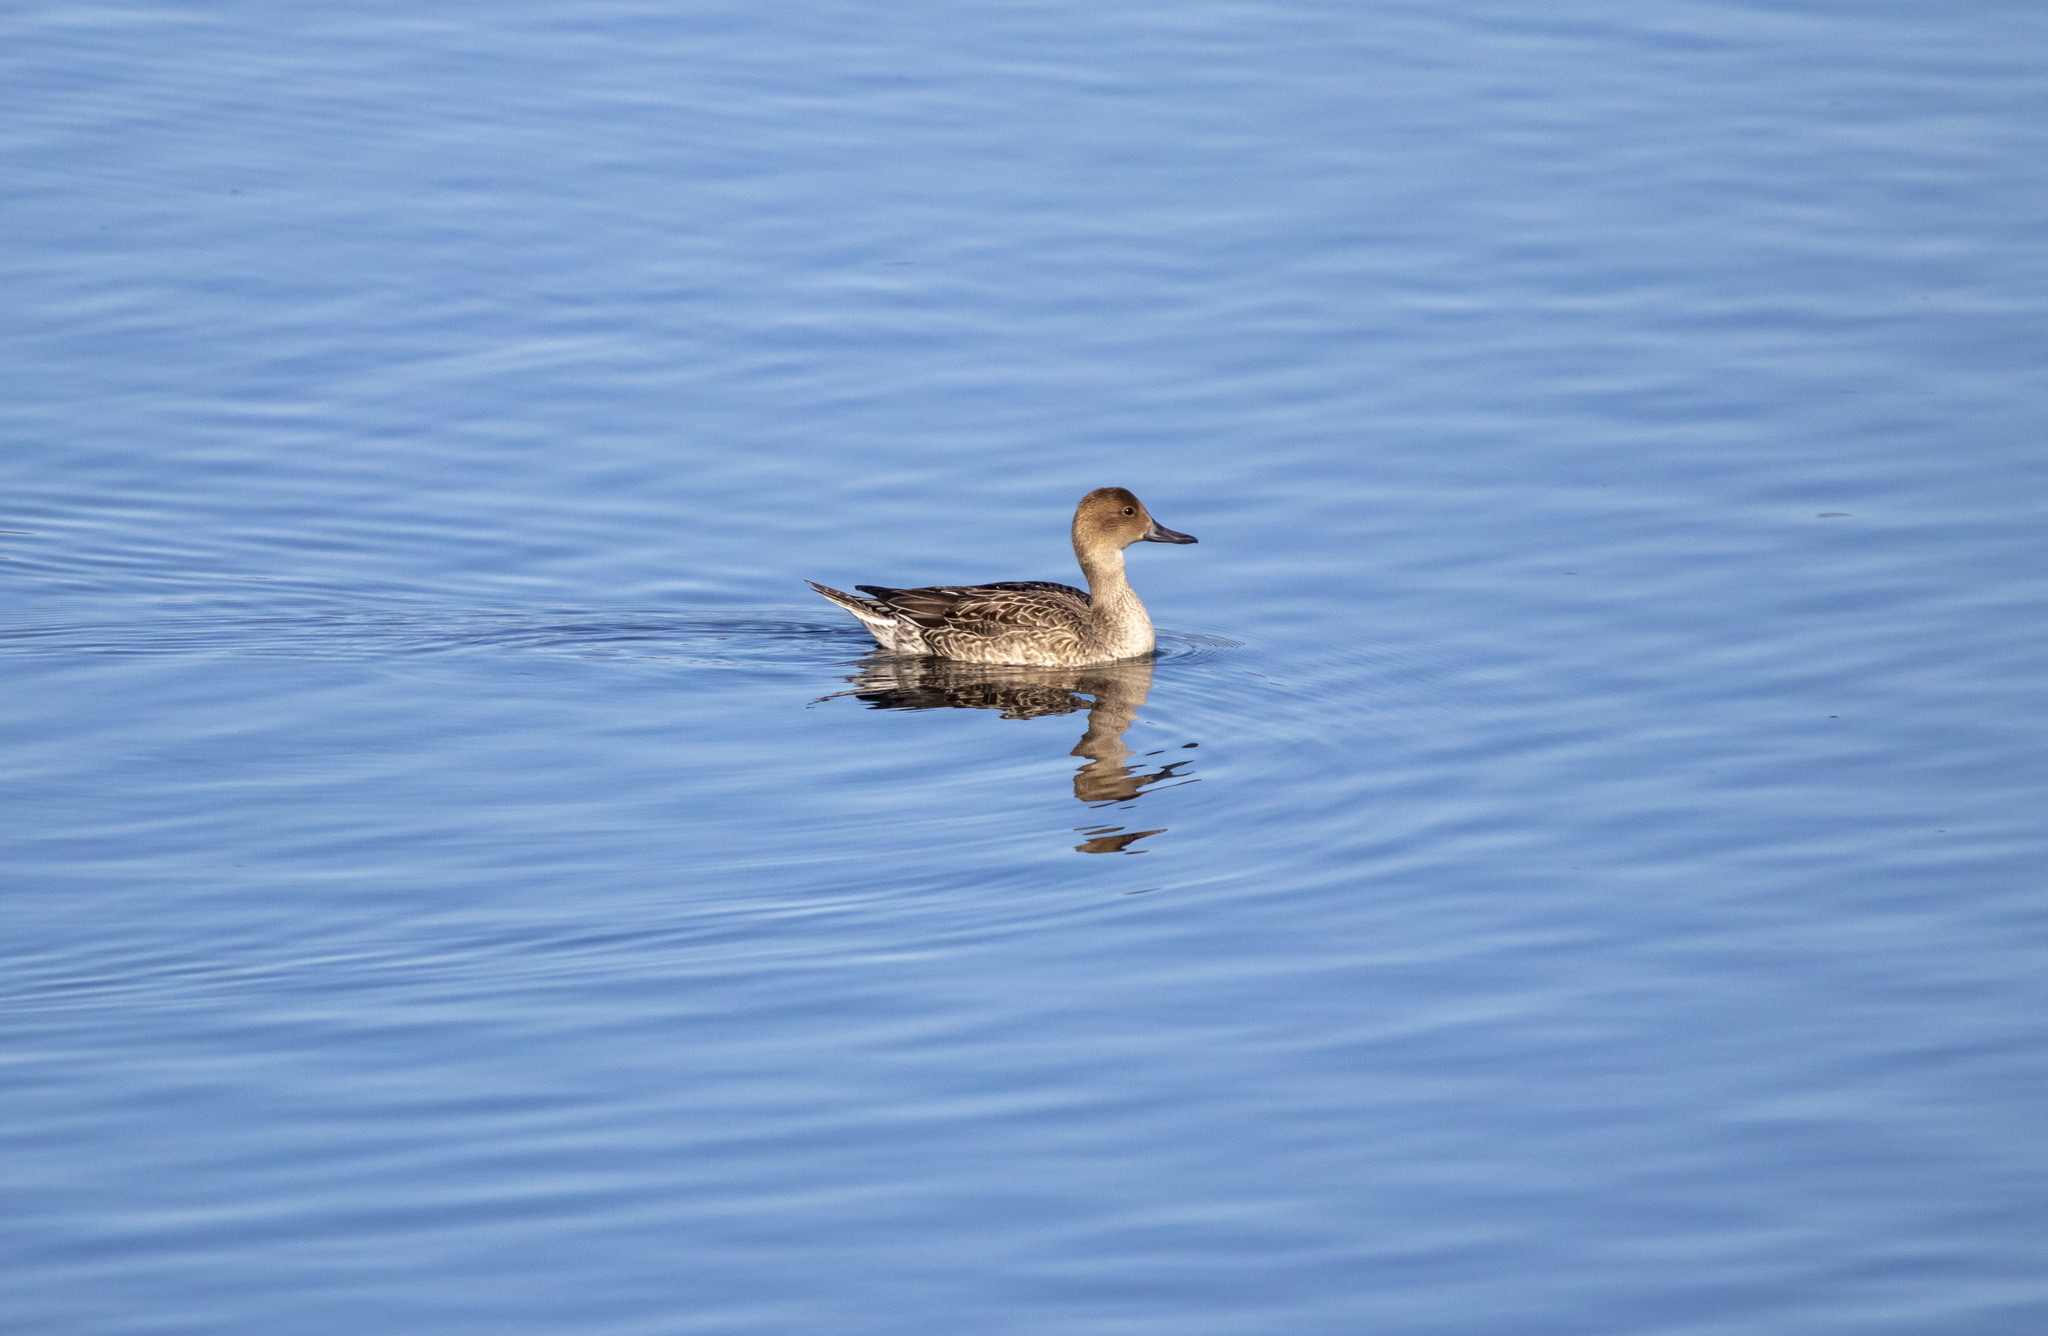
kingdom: Animalia
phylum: Chordata
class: Aves
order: Anseriformes
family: Anatidae
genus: Anas
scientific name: Anas acuta
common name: Northern pintail
